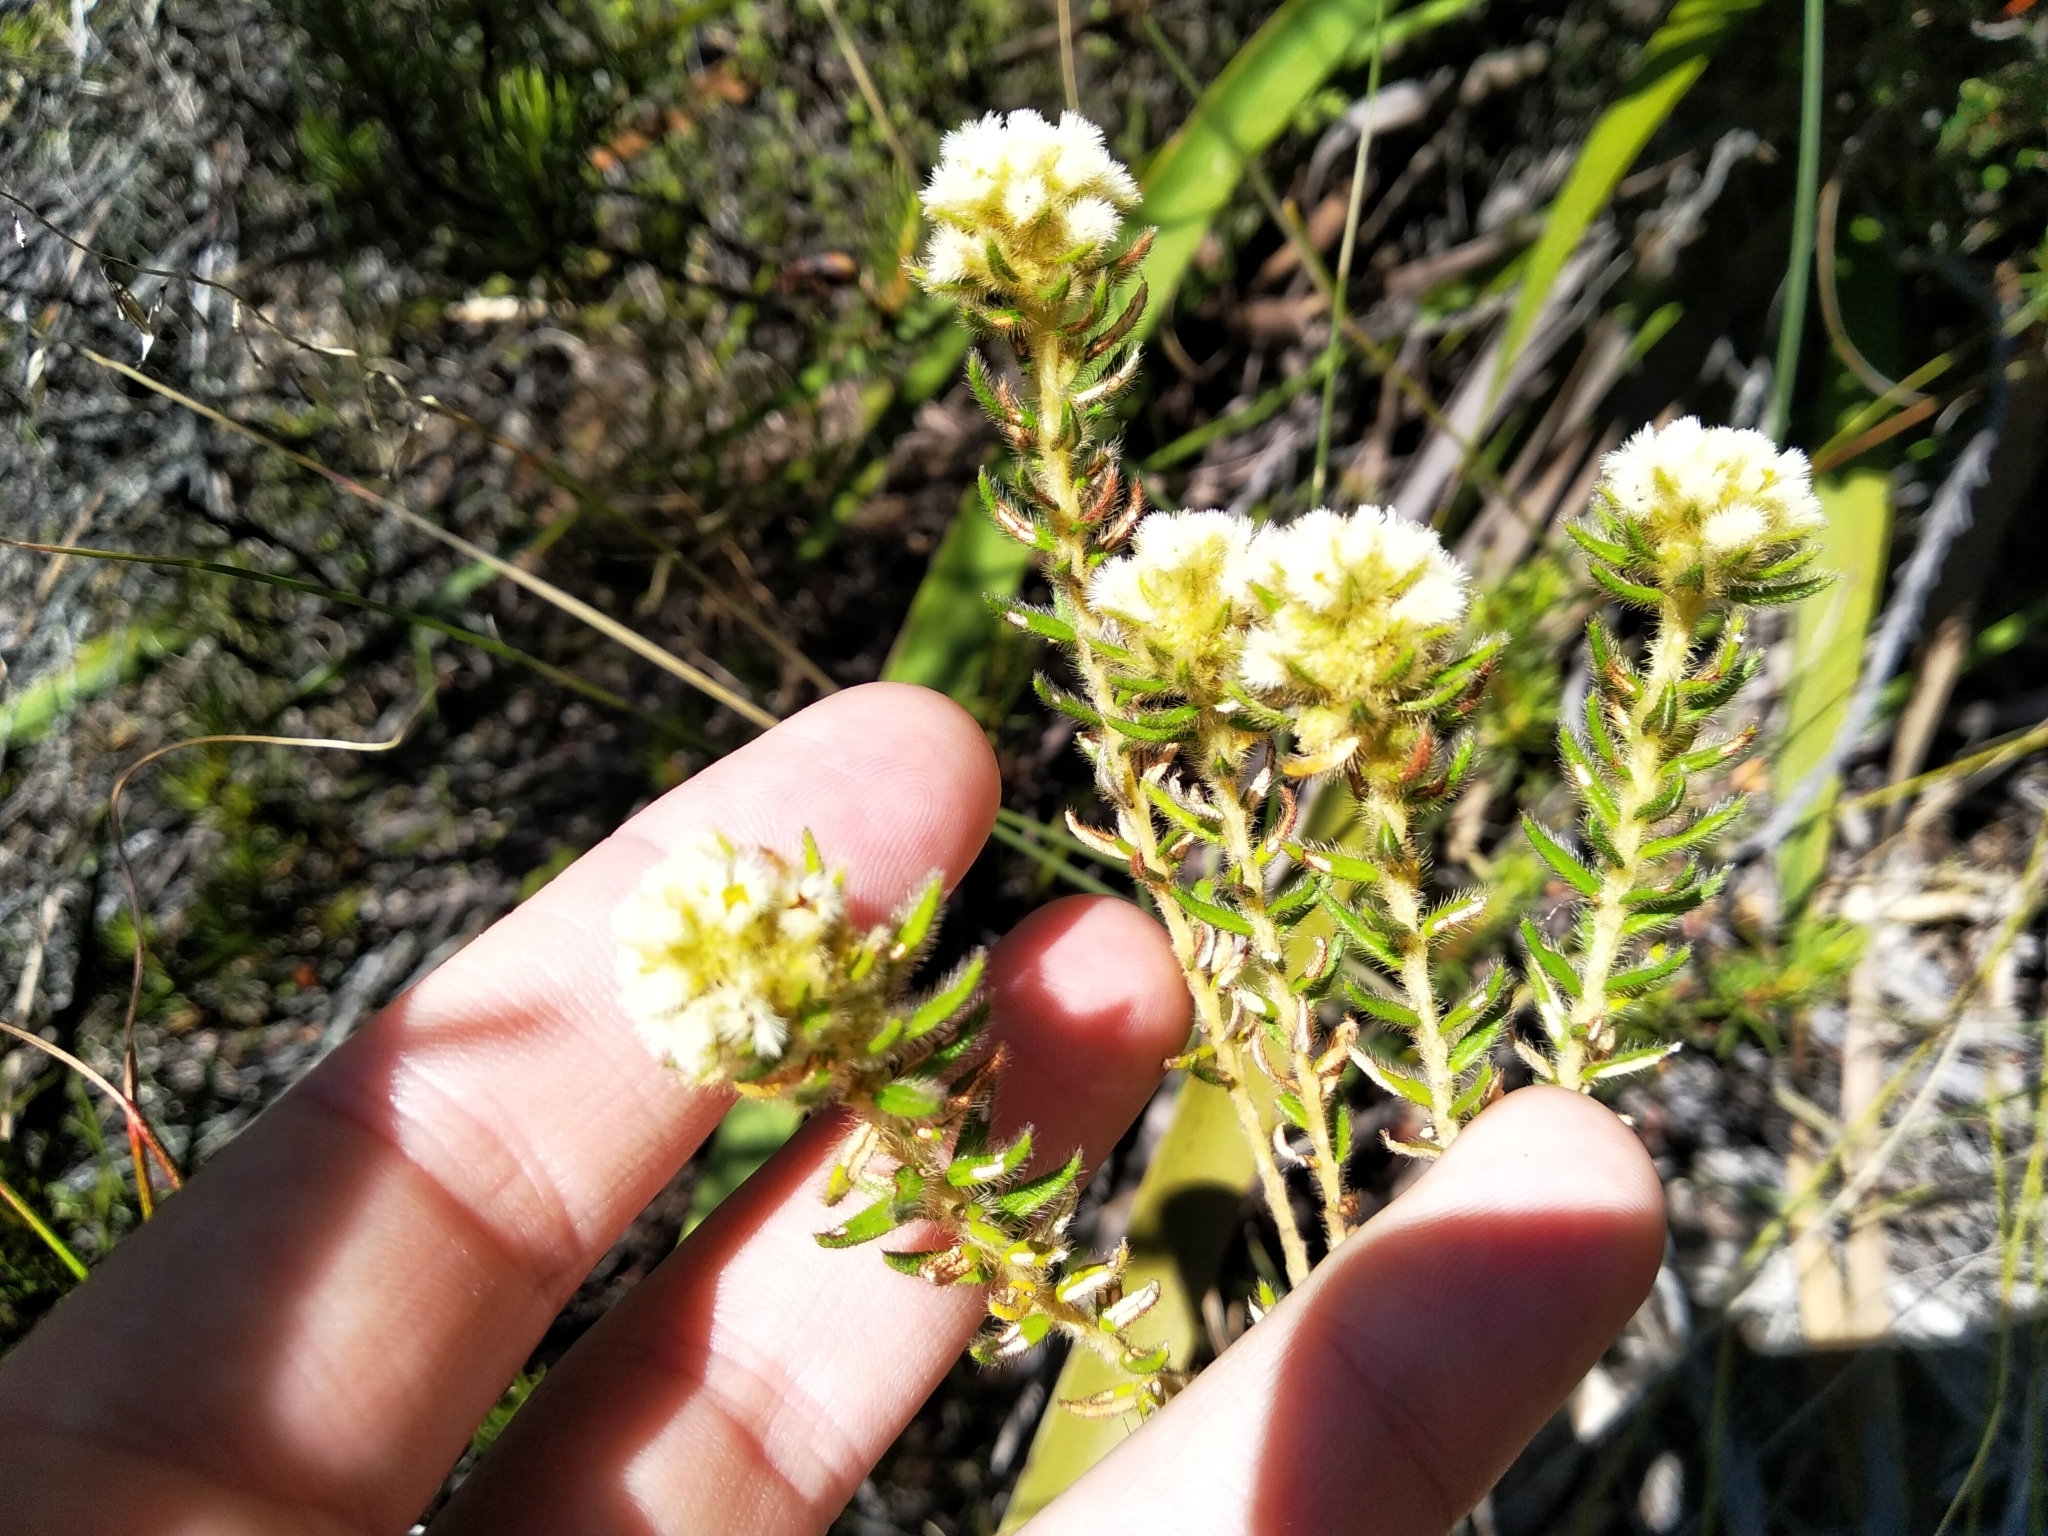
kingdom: Plantae
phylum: Tracheophyta
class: Magnoliopsida
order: Rosales
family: Rhamnaceae
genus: Phylica
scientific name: Phylica strigosa
